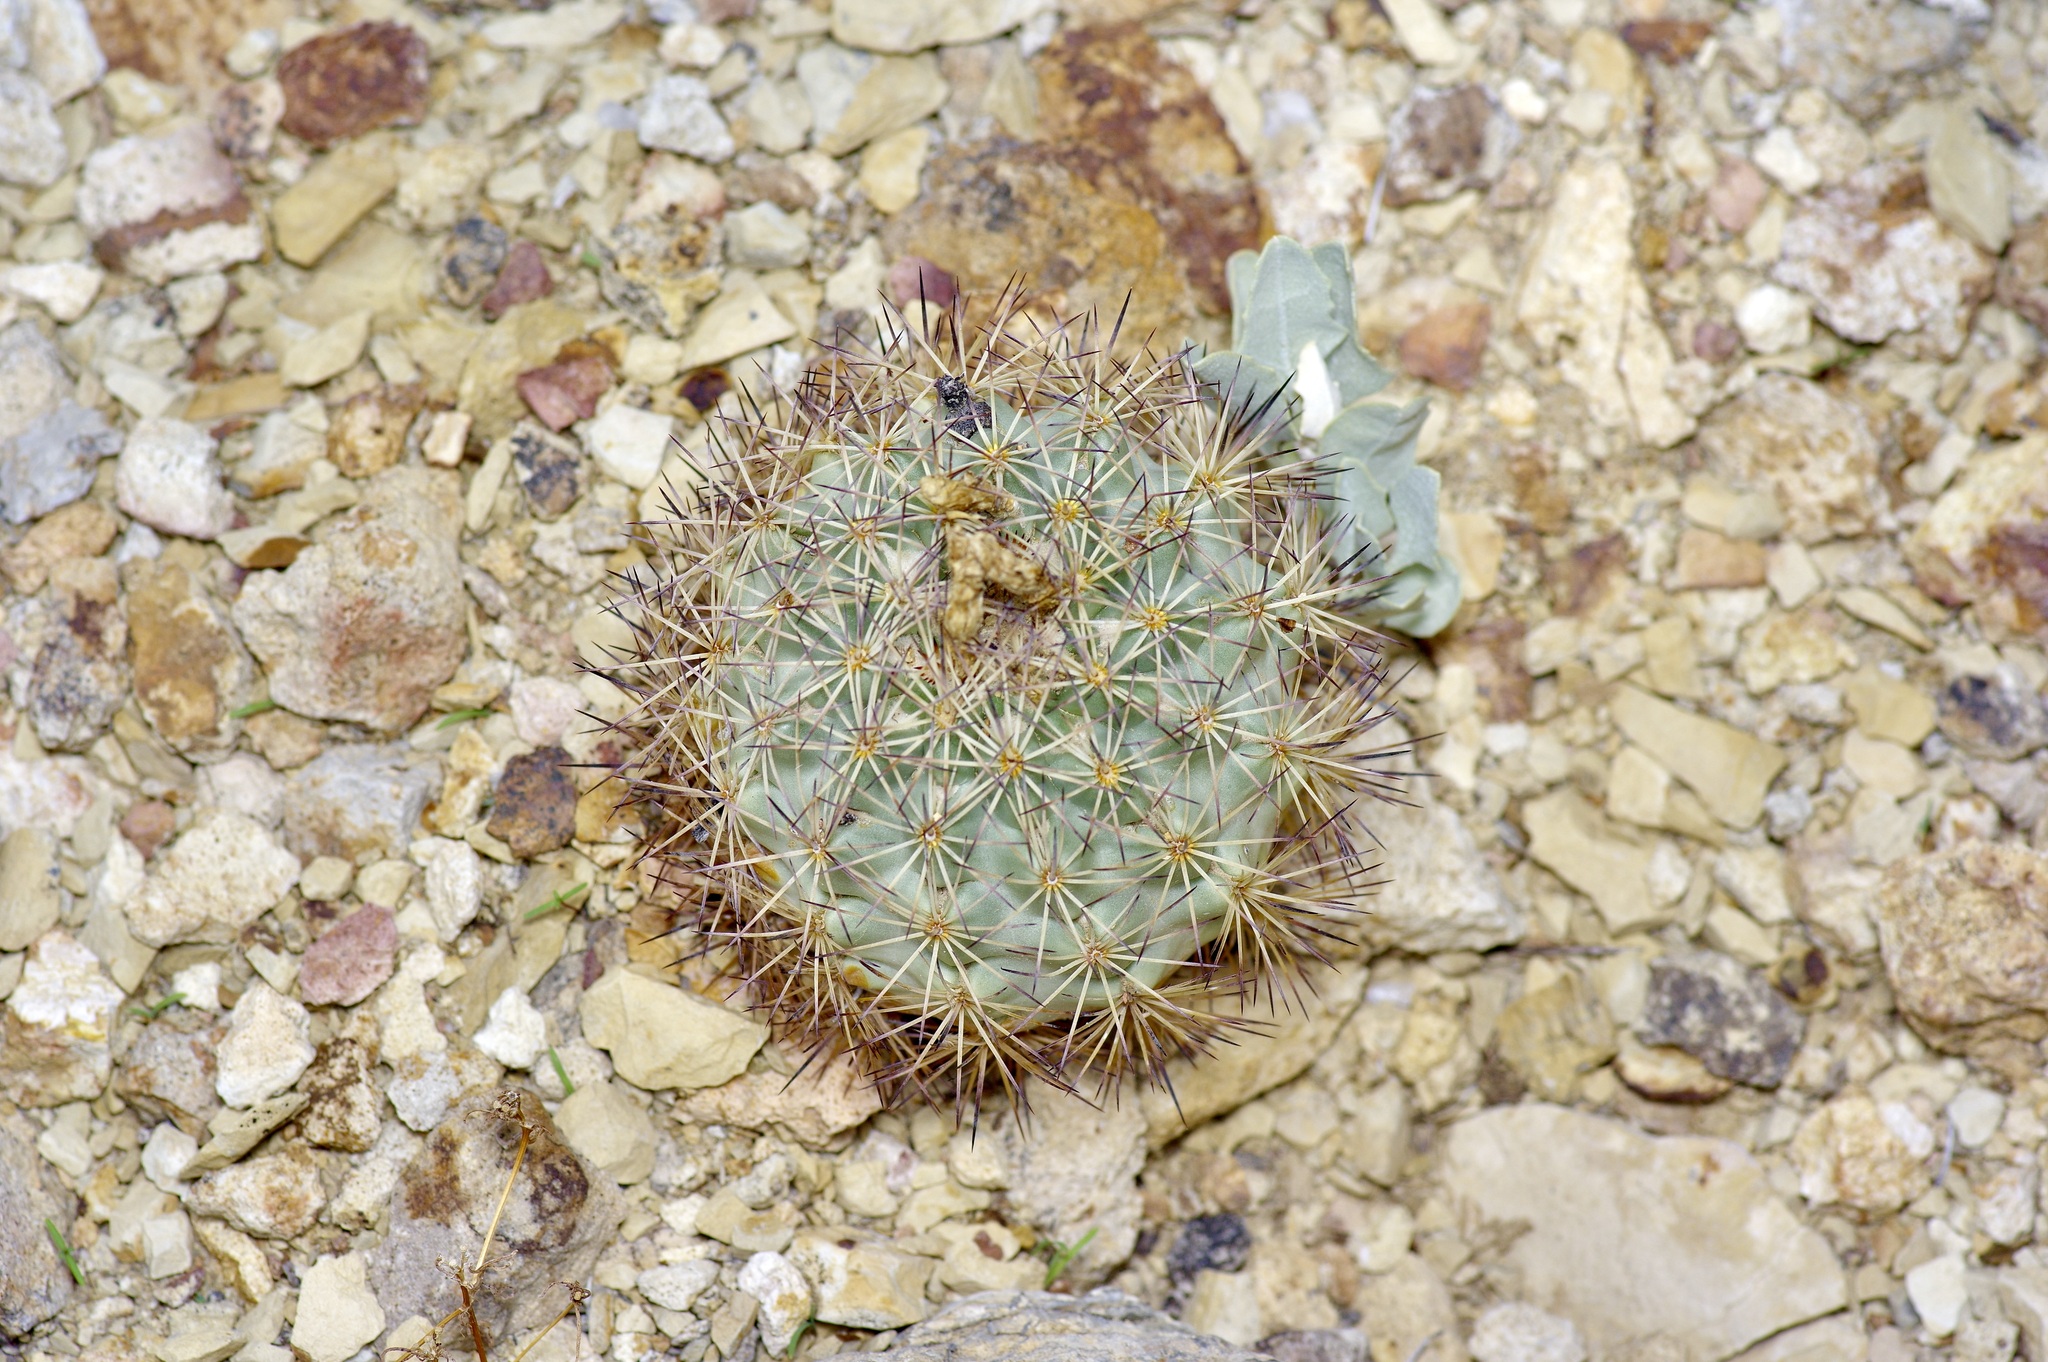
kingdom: Plantae
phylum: Tracheophyta
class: Magnoliopsida
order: Caryophyllales
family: Cactaceae
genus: Sclerocactus
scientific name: Sclerocactus warnockii
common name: Pineapple cactus
